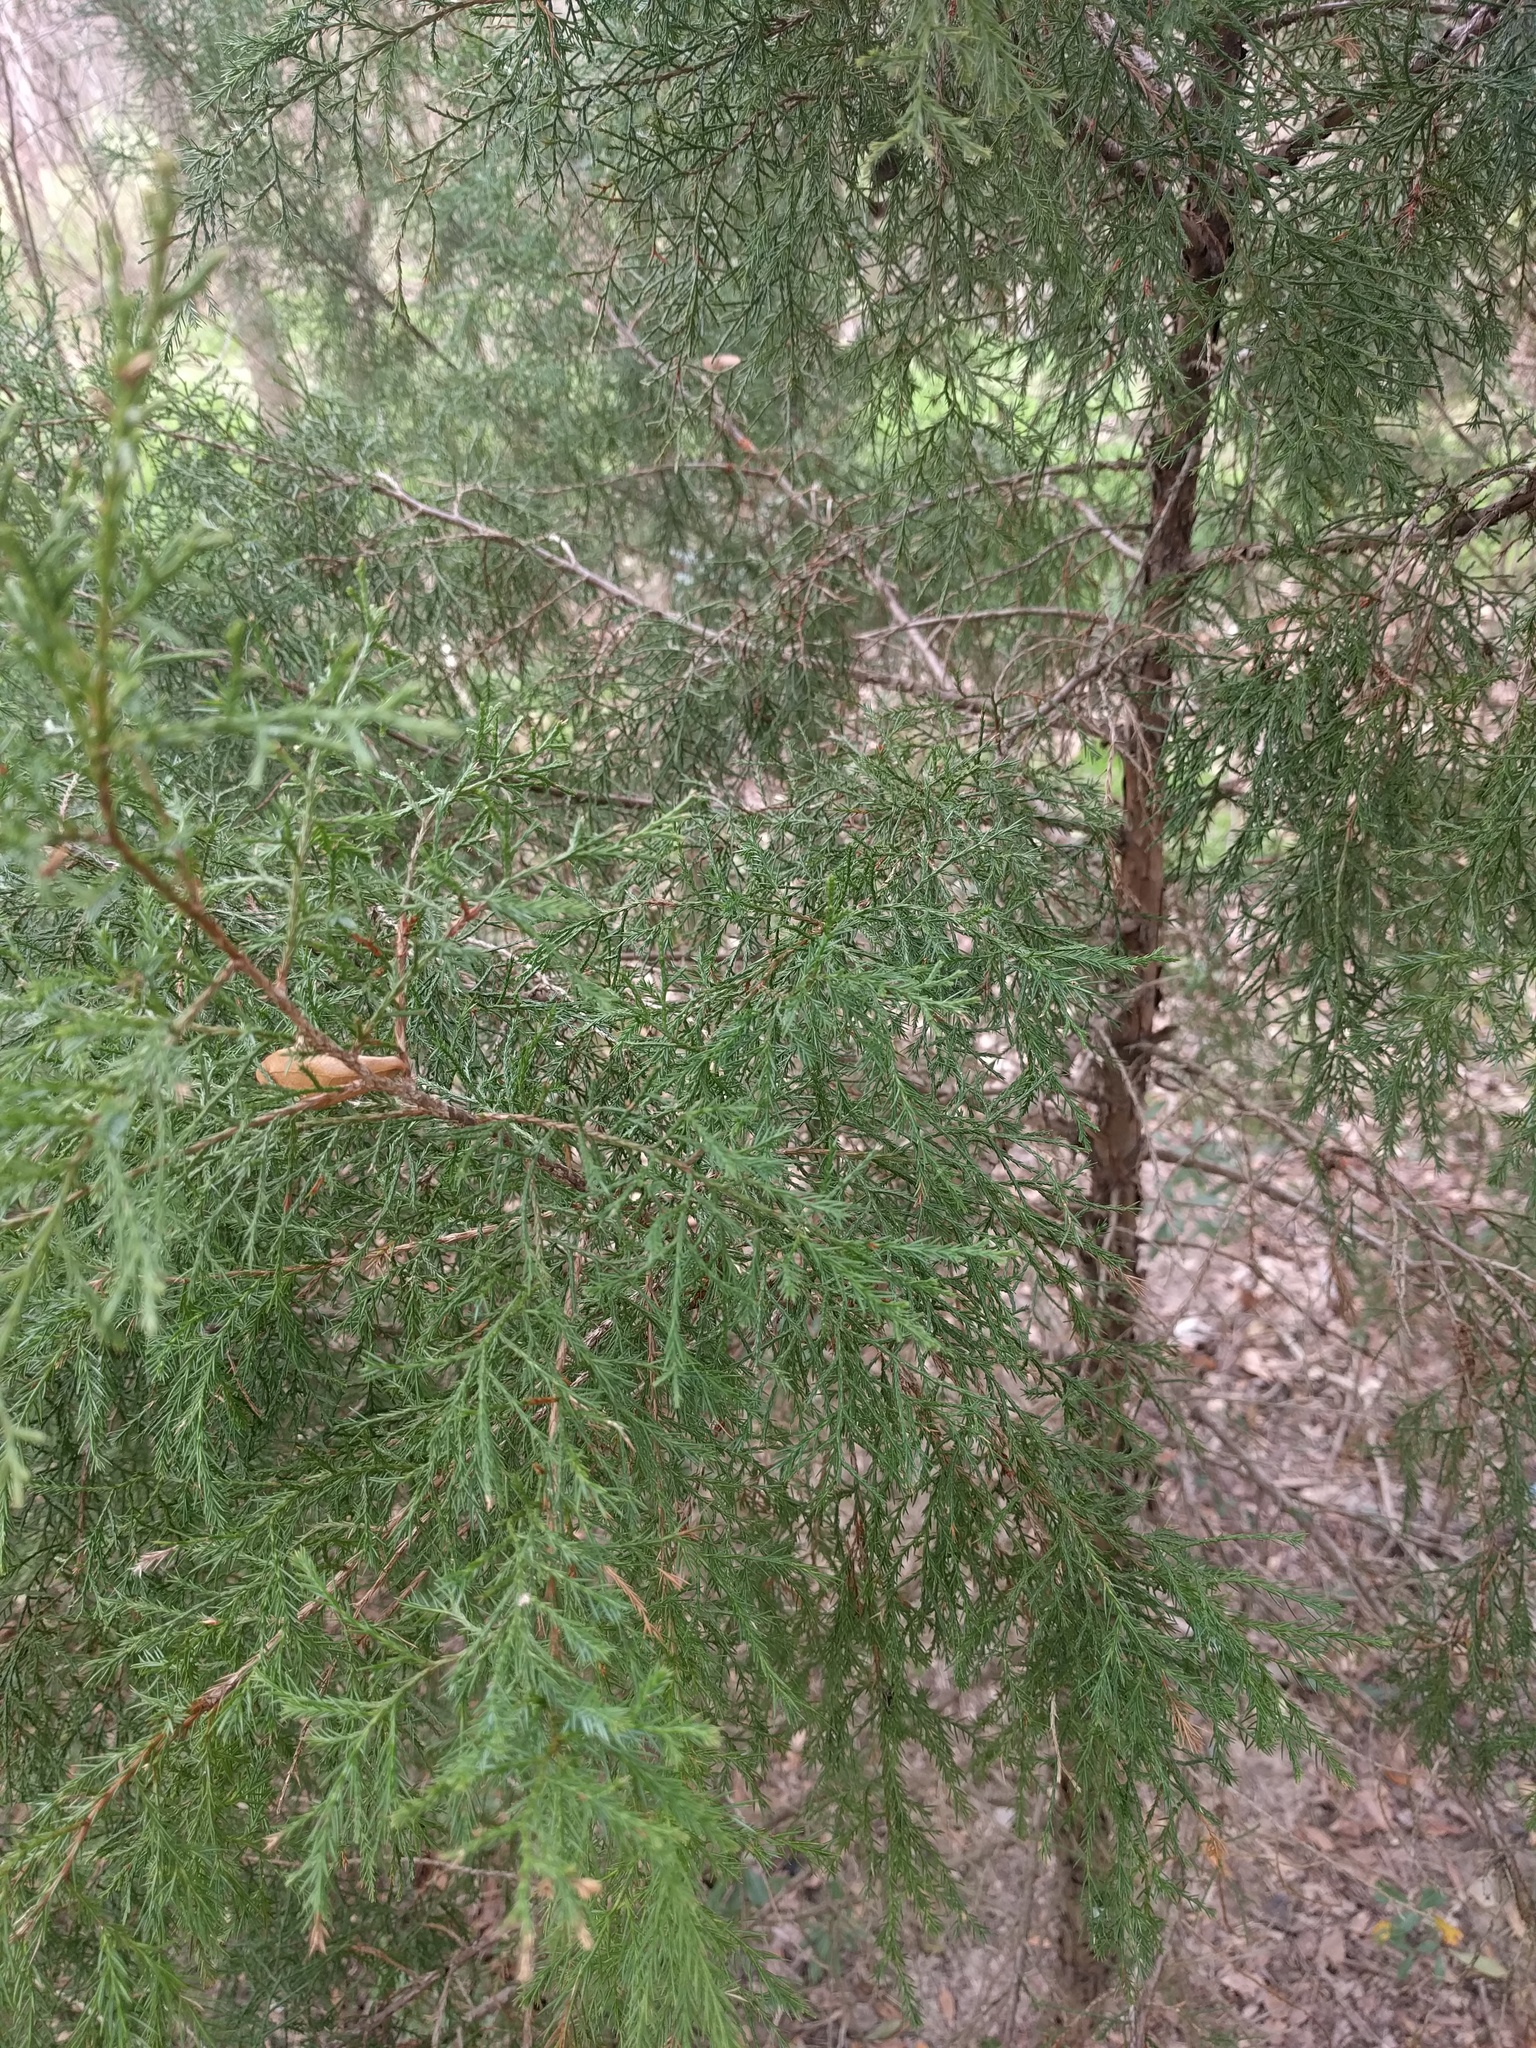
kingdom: Plantae
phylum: Tracheophyta
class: Pinopsida
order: Pinales
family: Cupressaceae
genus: Juniperus
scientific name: Juniperus virginiana
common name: Red juniper
